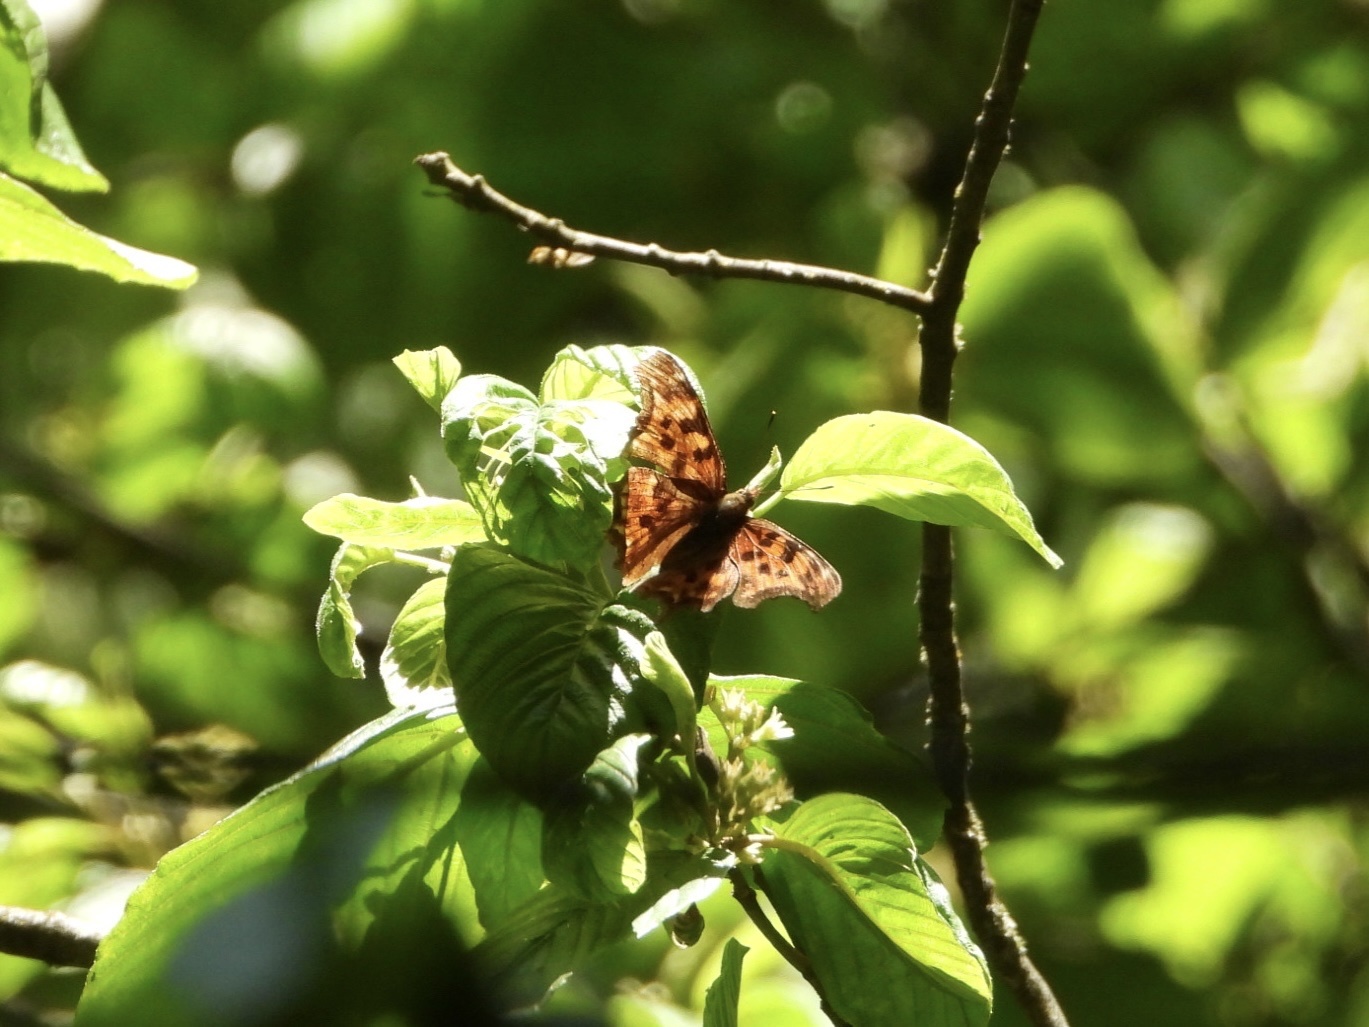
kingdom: Animalia
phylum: Arthropoda
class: Insecta
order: Lepidoptera
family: Nymphalidae
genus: Polygonia
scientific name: Polygonia satyrus
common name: Satyr angle wing
